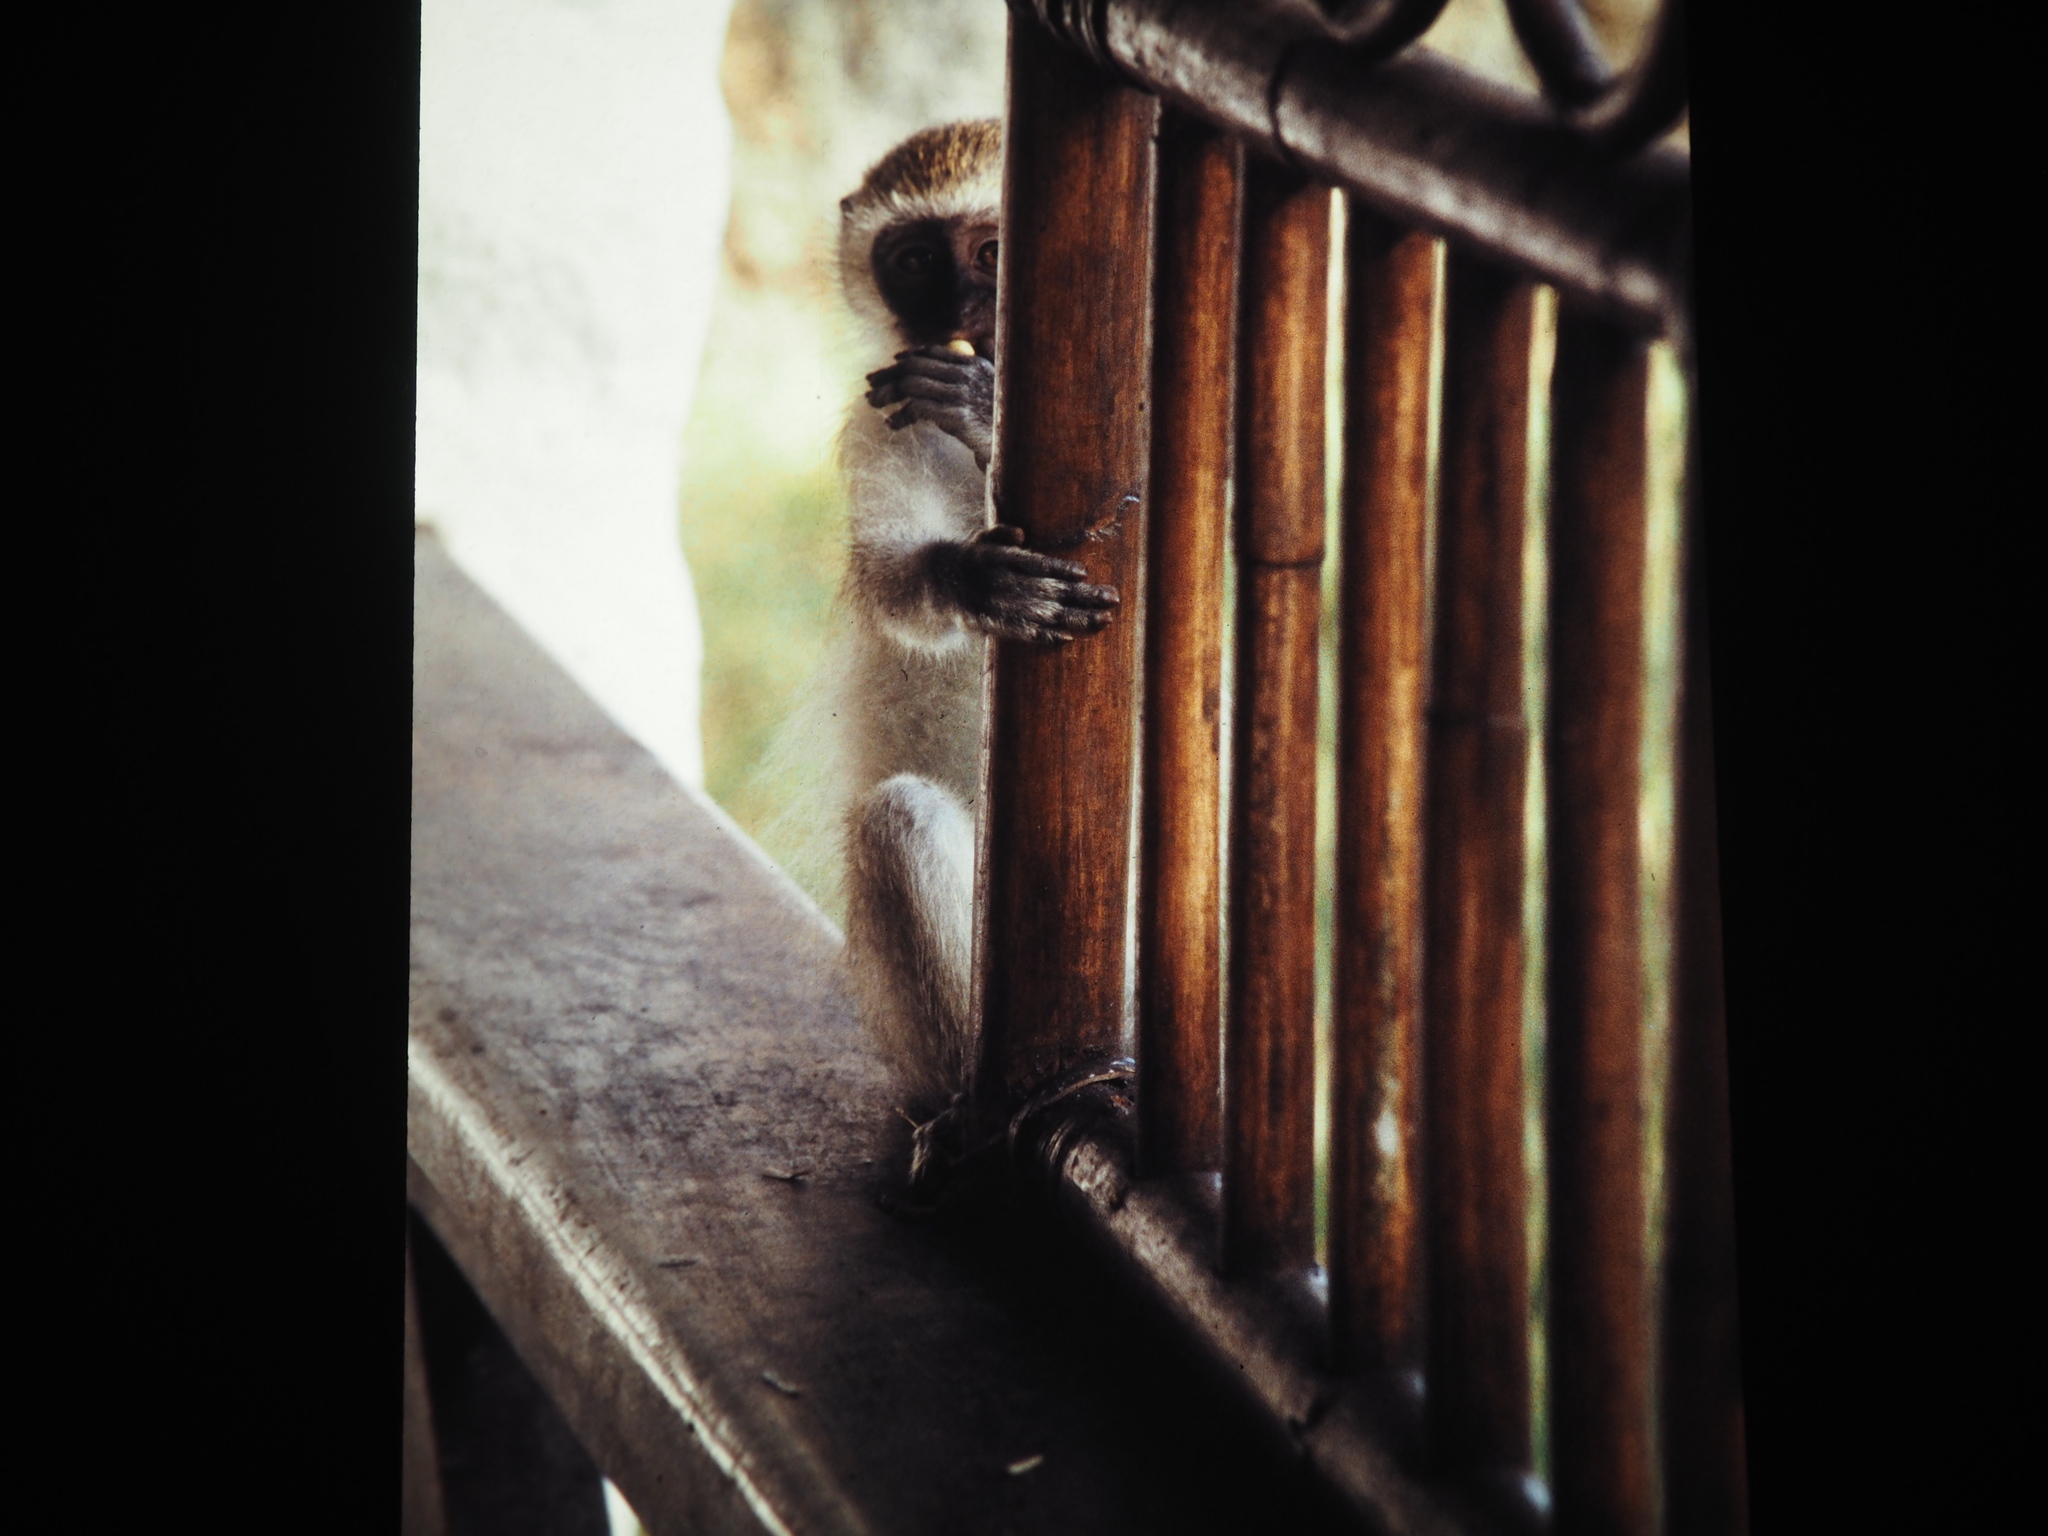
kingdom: Animalia
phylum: Chordata
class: Mammalia
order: Primates
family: Cercopithecidae
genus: Chlorocebus
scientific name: Chlorocebus pygerythrus
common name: Vervet monkey
